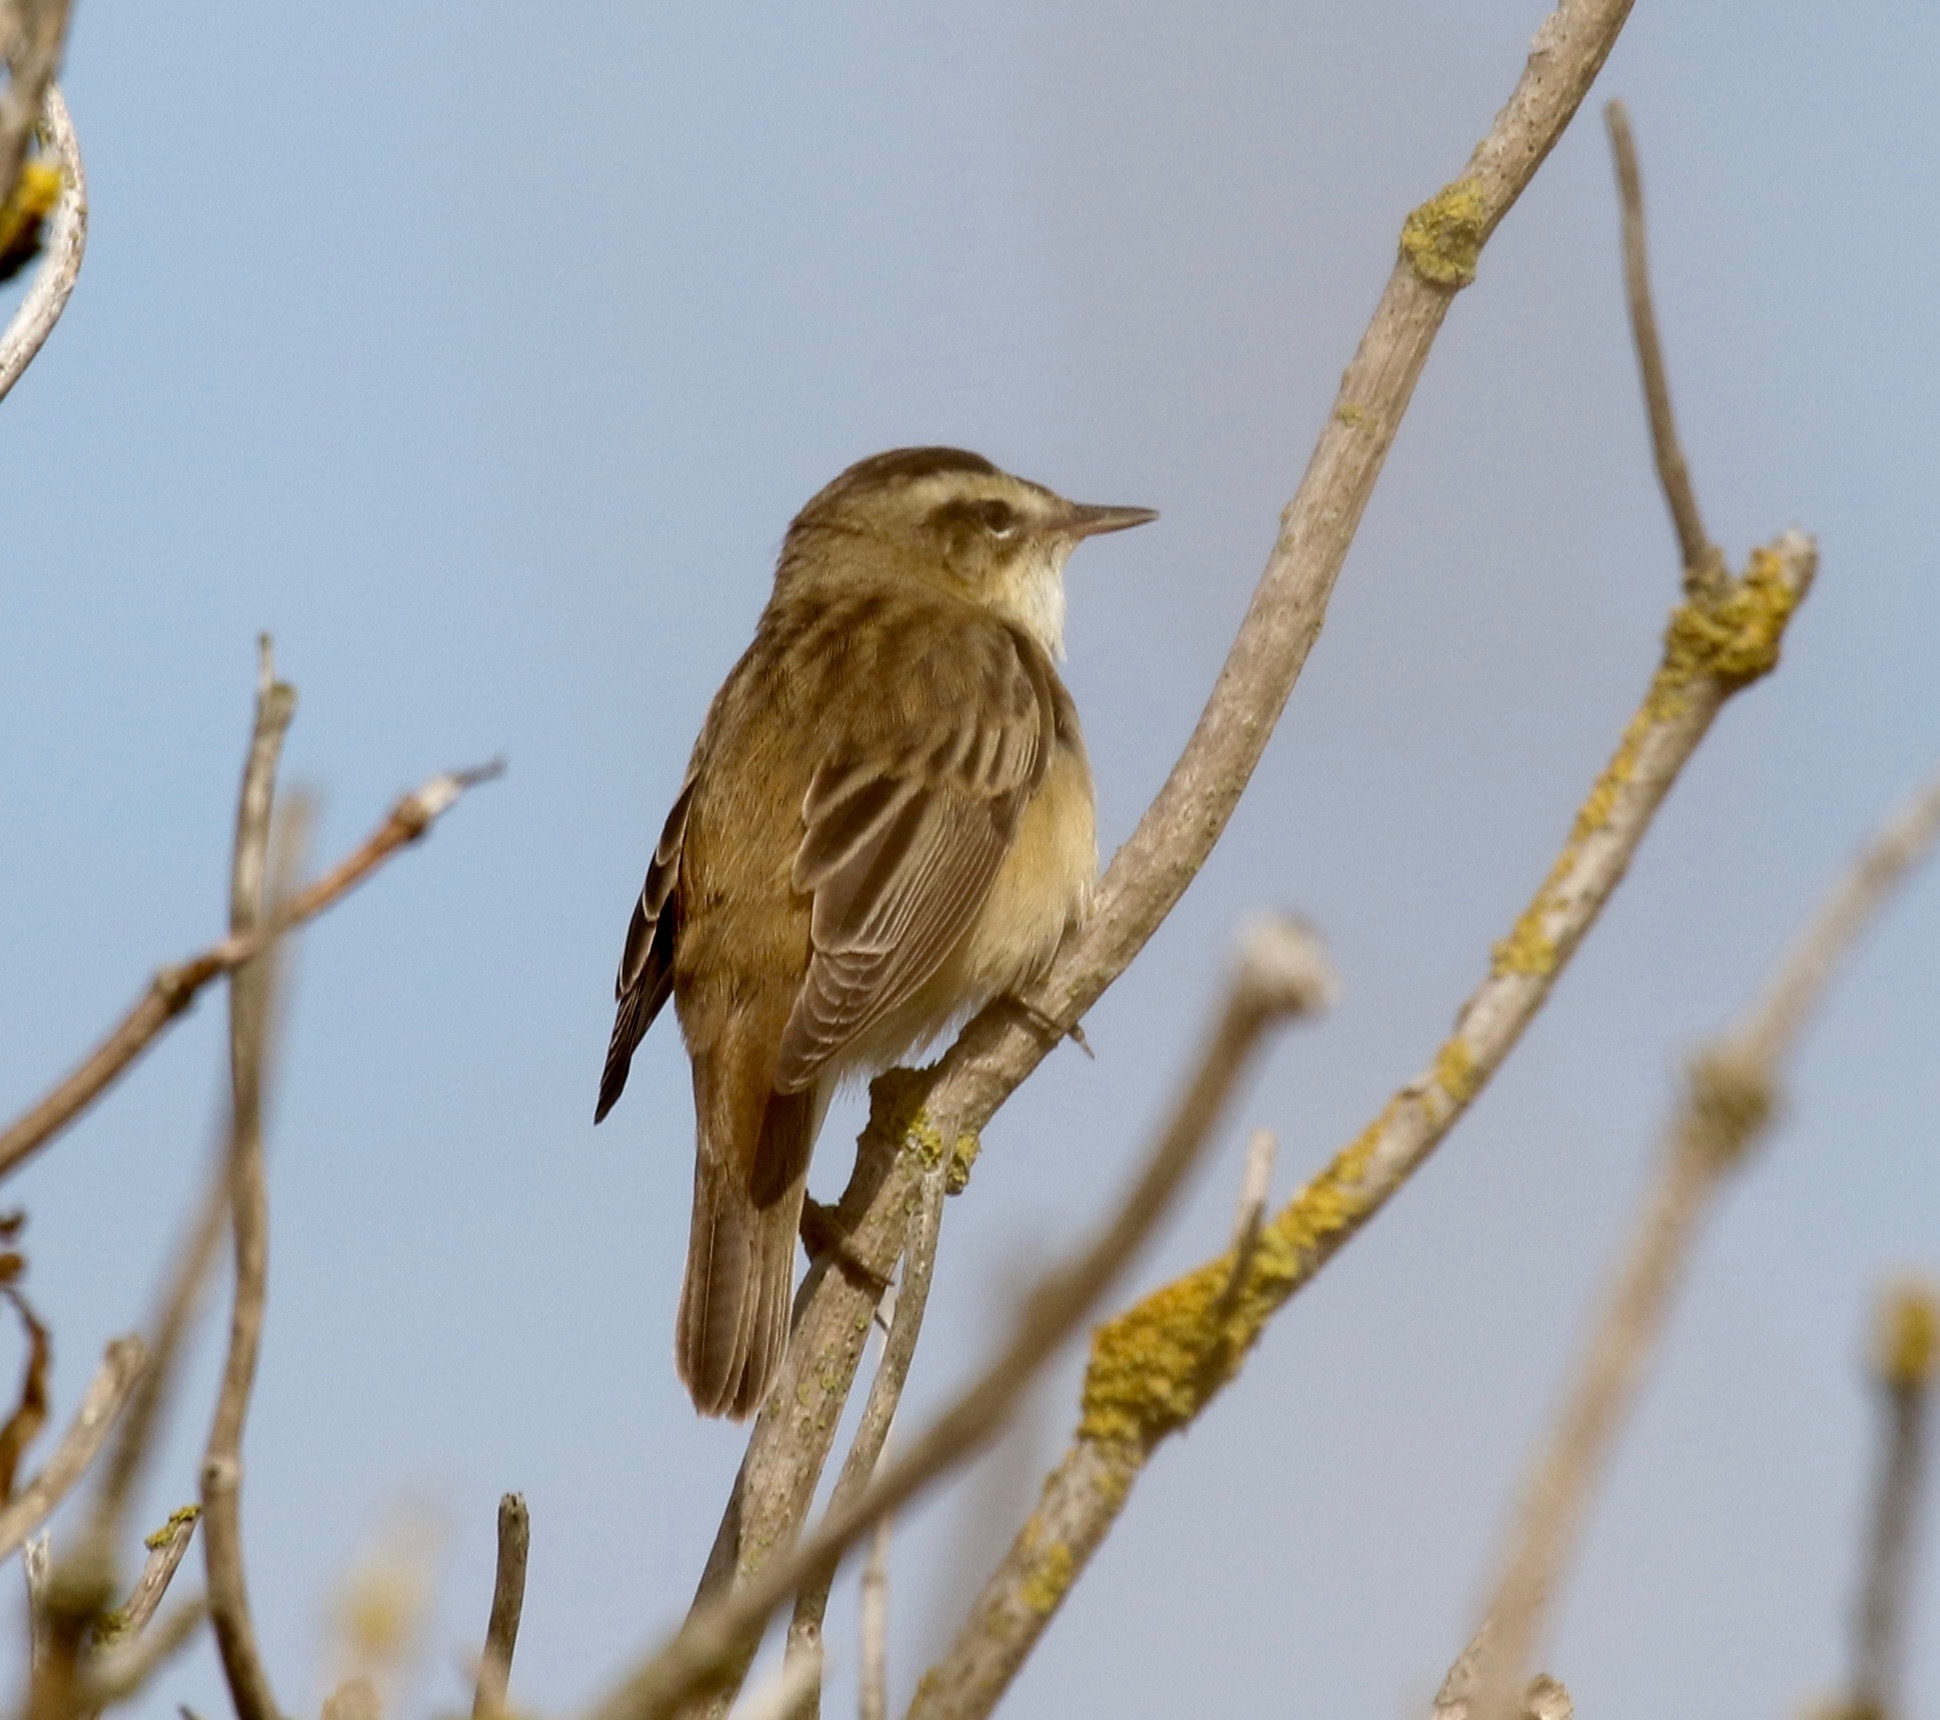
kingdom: Animalia
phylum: Chordata
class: Aves
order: Passeriformes
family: Acrocephalidae
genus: Acrocephalus
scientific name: Acrocephalus schoenobaenus
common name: Sedge warbler
